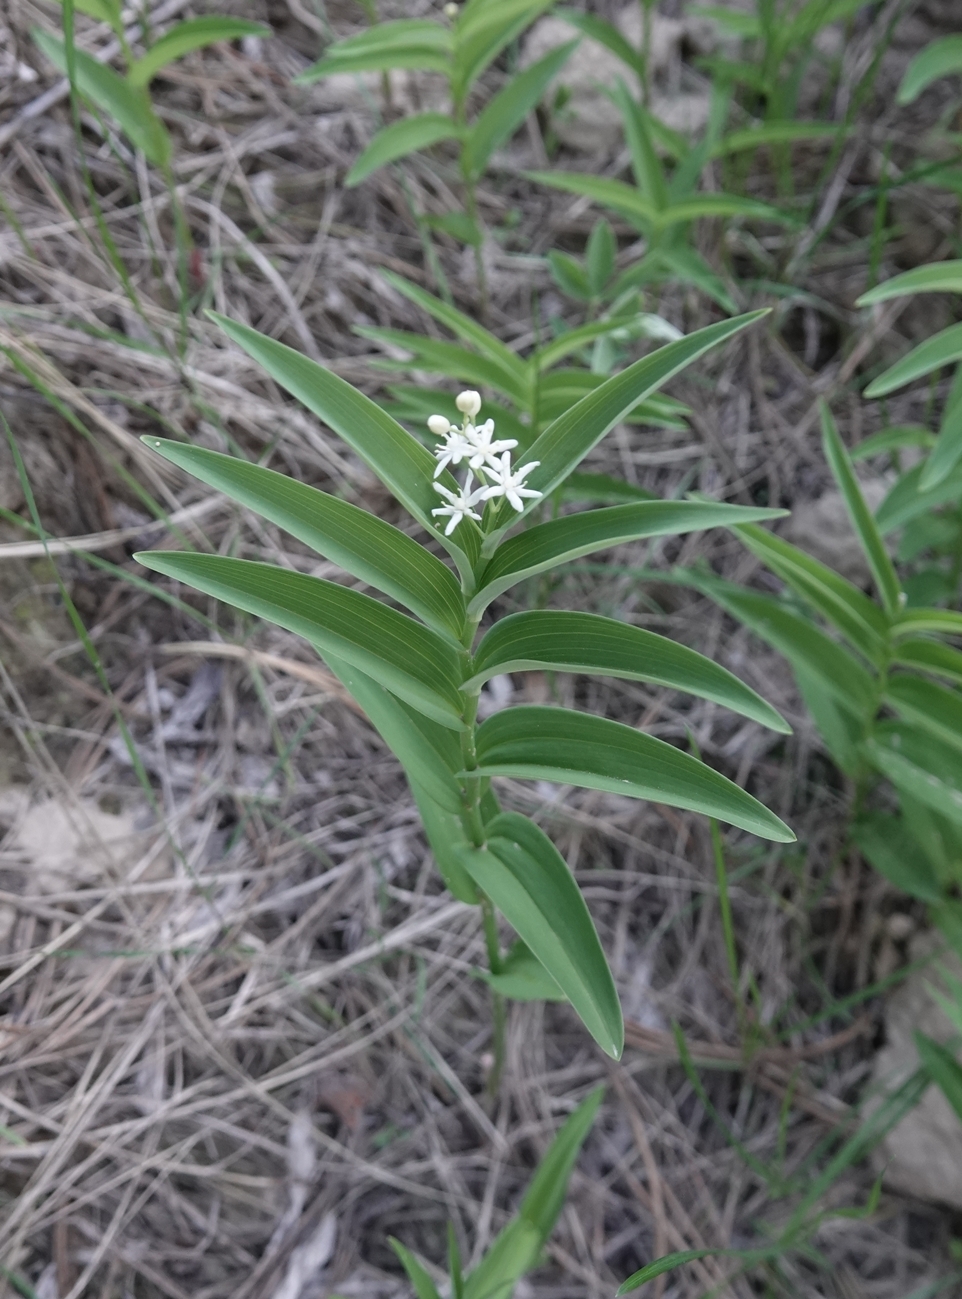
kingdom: Plantae
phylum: Tracheophyta
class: Liliopsida
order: Asparagales
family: Asparagaceae
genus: Maianthemum
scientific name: Maianthemum stellatum
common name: Little false solomon's seal
